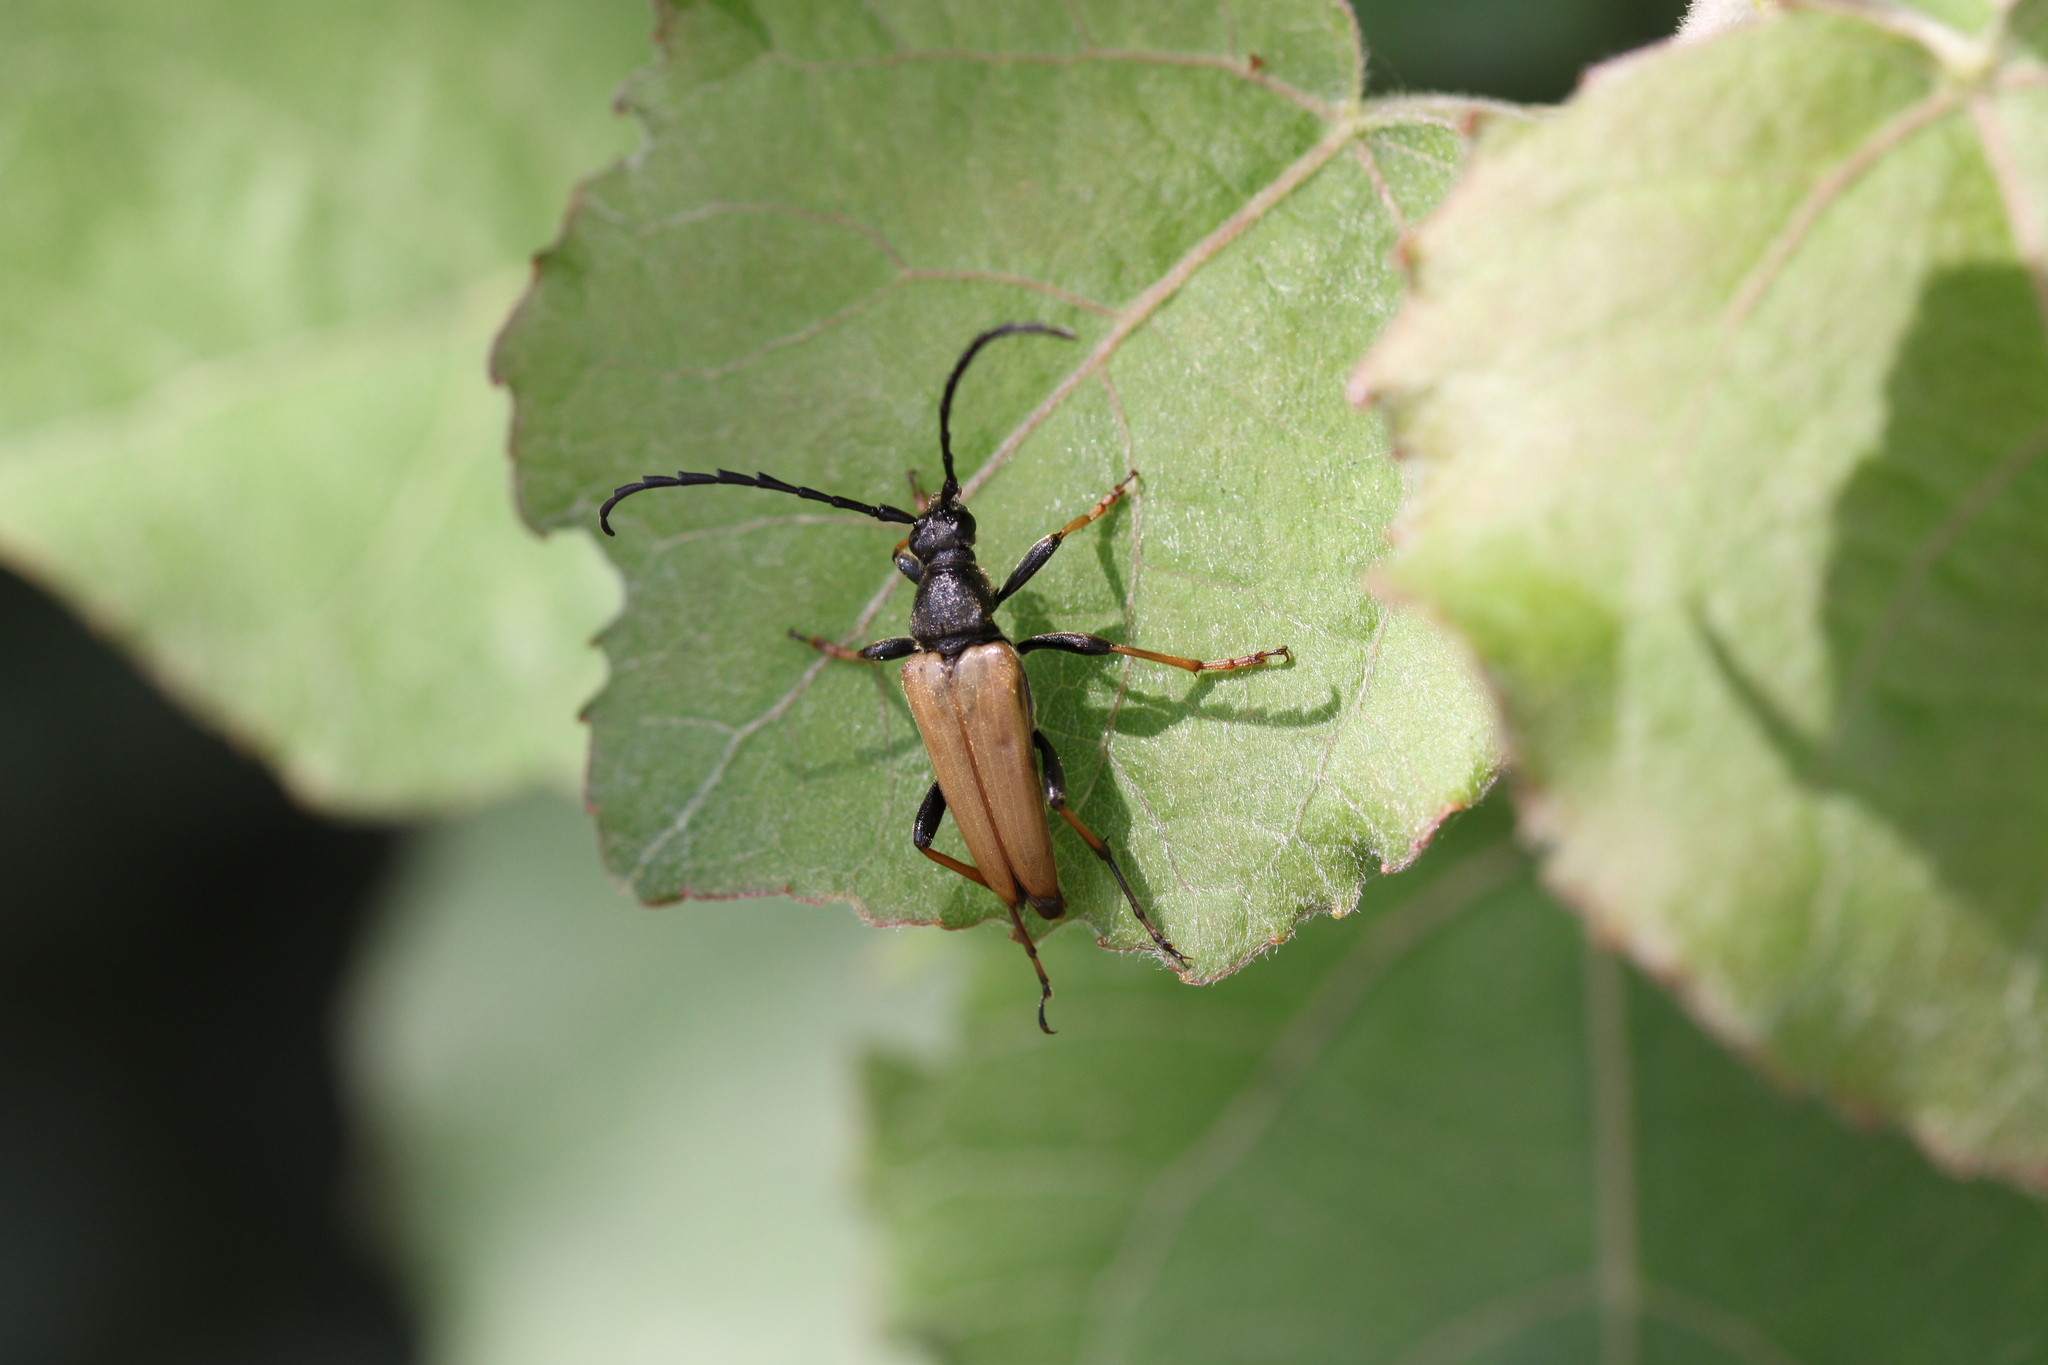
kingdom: Animalia
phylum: Arthropoda
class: Insecta
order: Coleoptera
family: Cerambycidae
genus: Stictoleptura
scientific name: Stictoleptura rubra
